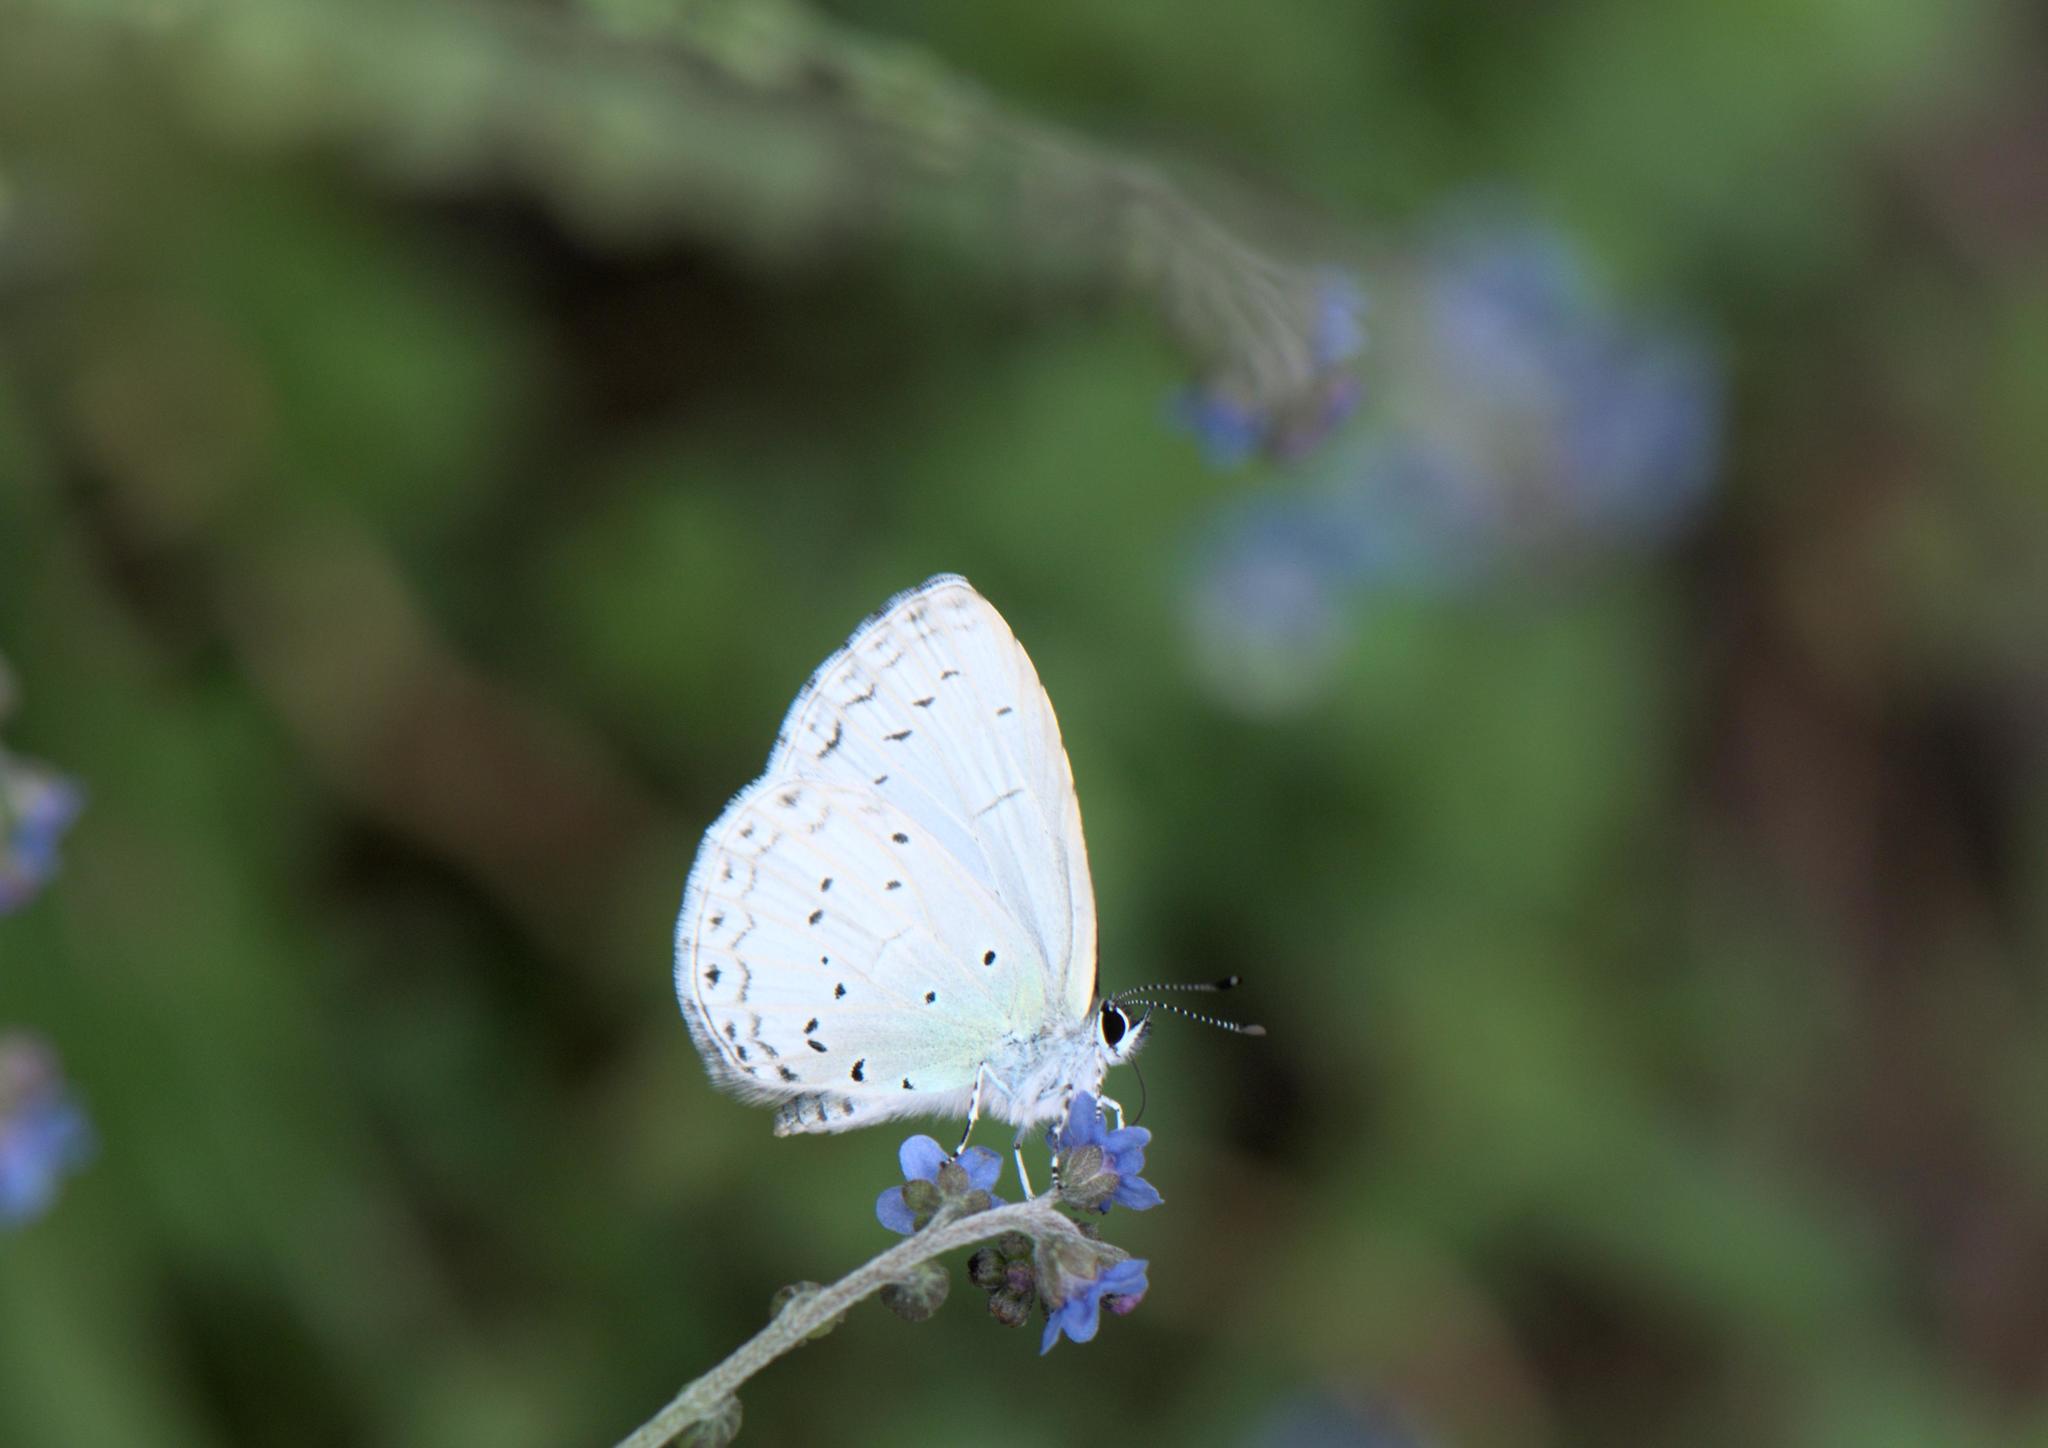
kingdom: Animalia
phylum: Arthropoda
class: Insecta
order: Lepidoptera
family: Lycaenidae
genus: Celastrina
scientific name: Celastrina lavendularis
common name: Plain hedge blue
